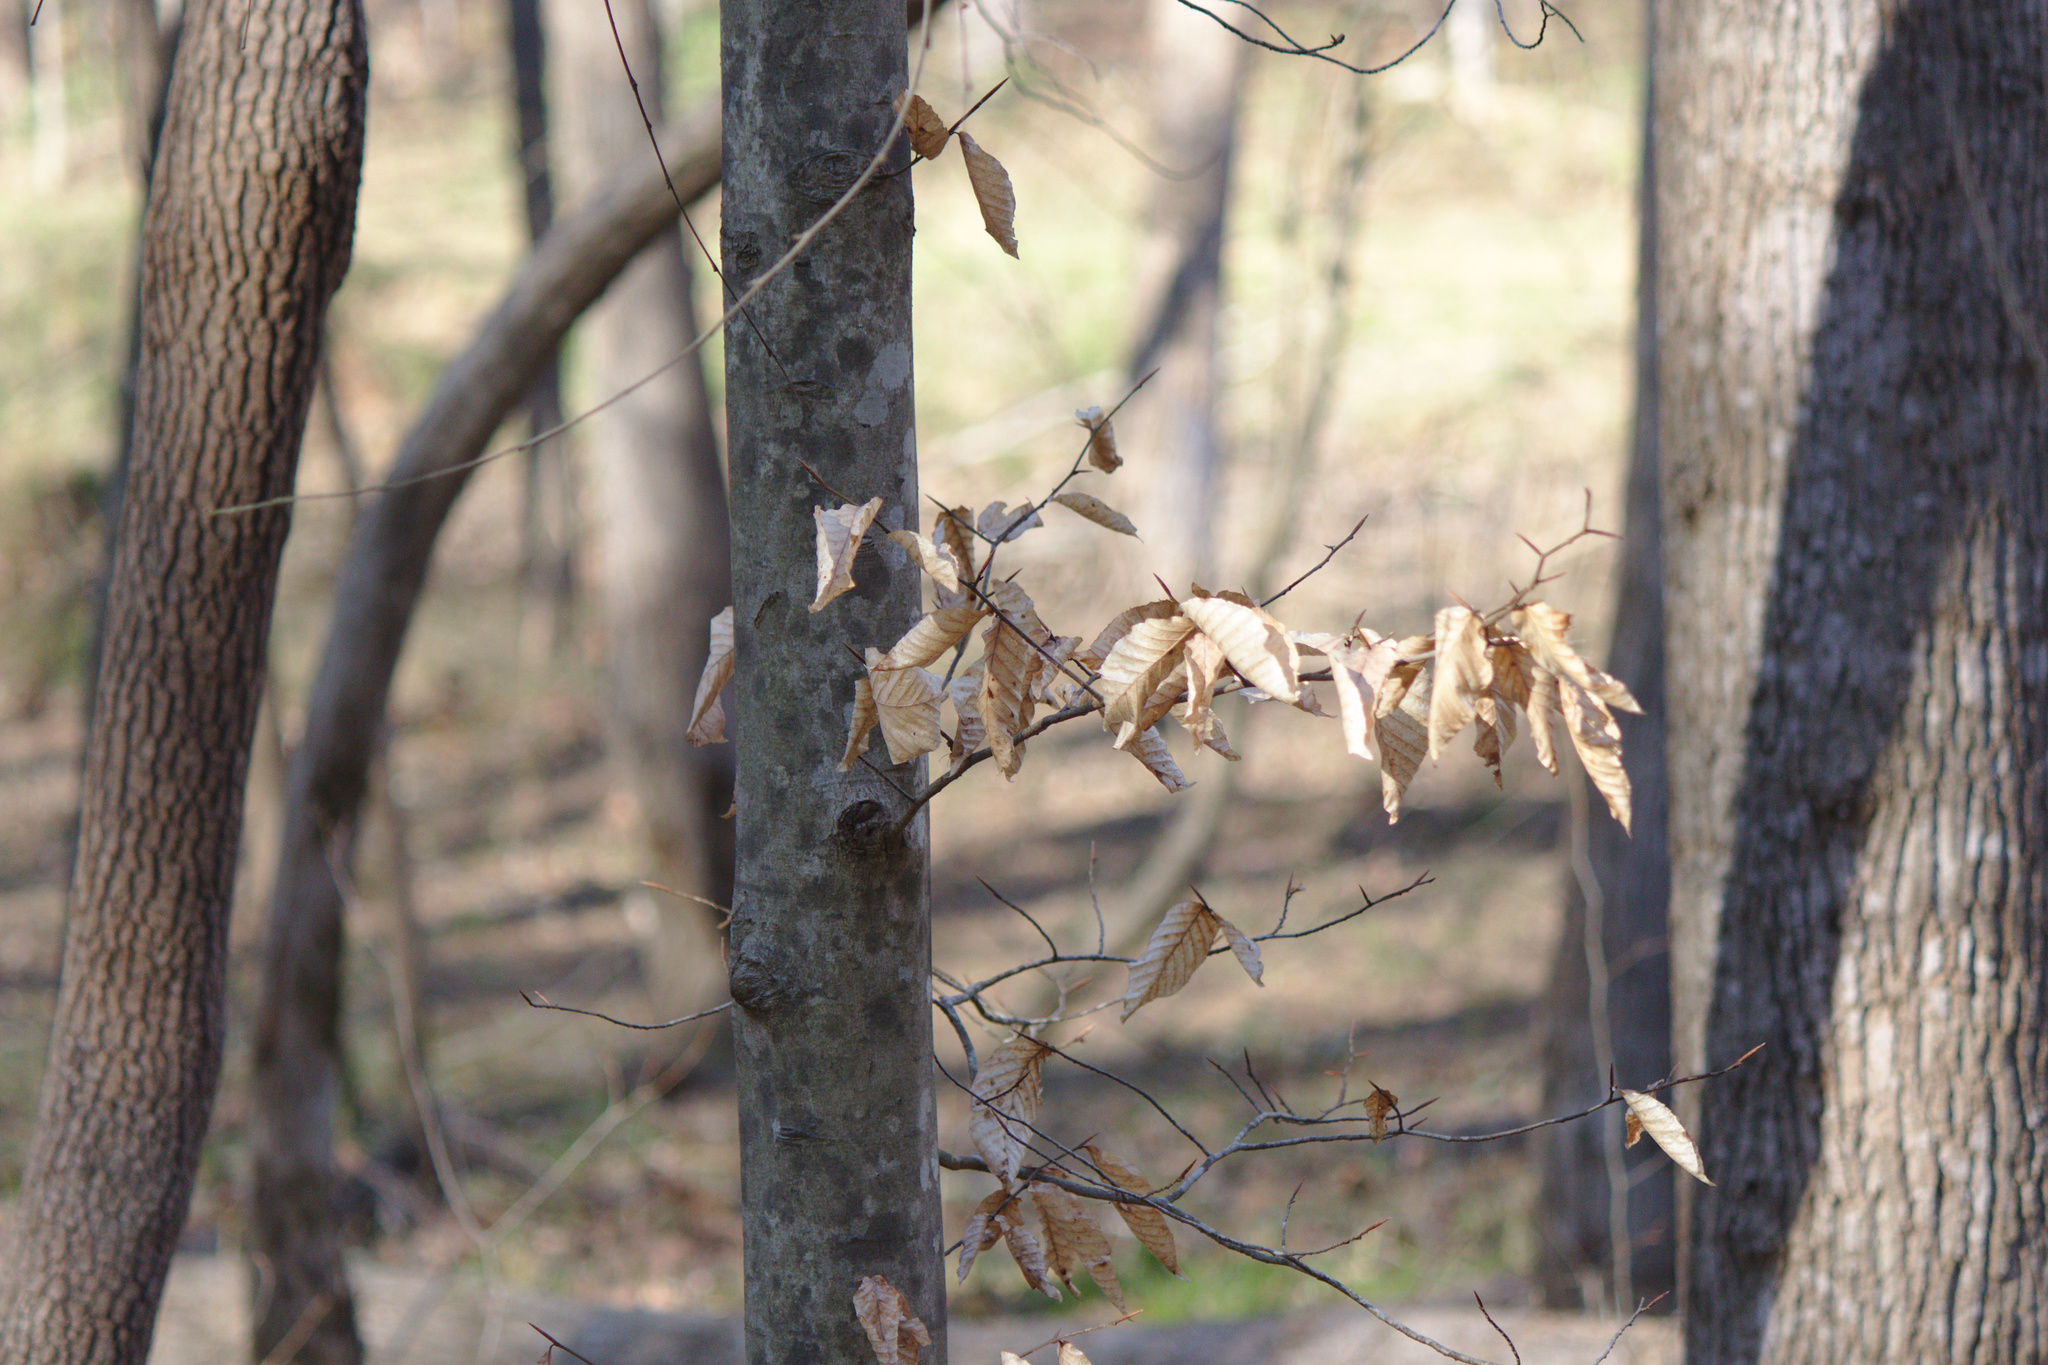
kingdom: Plantae
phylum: Tracheophyta
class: Magnoliopsida
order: Fagales
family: Fagaceae
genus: Fagus
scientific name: Fagus grandifolia
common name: American beech
